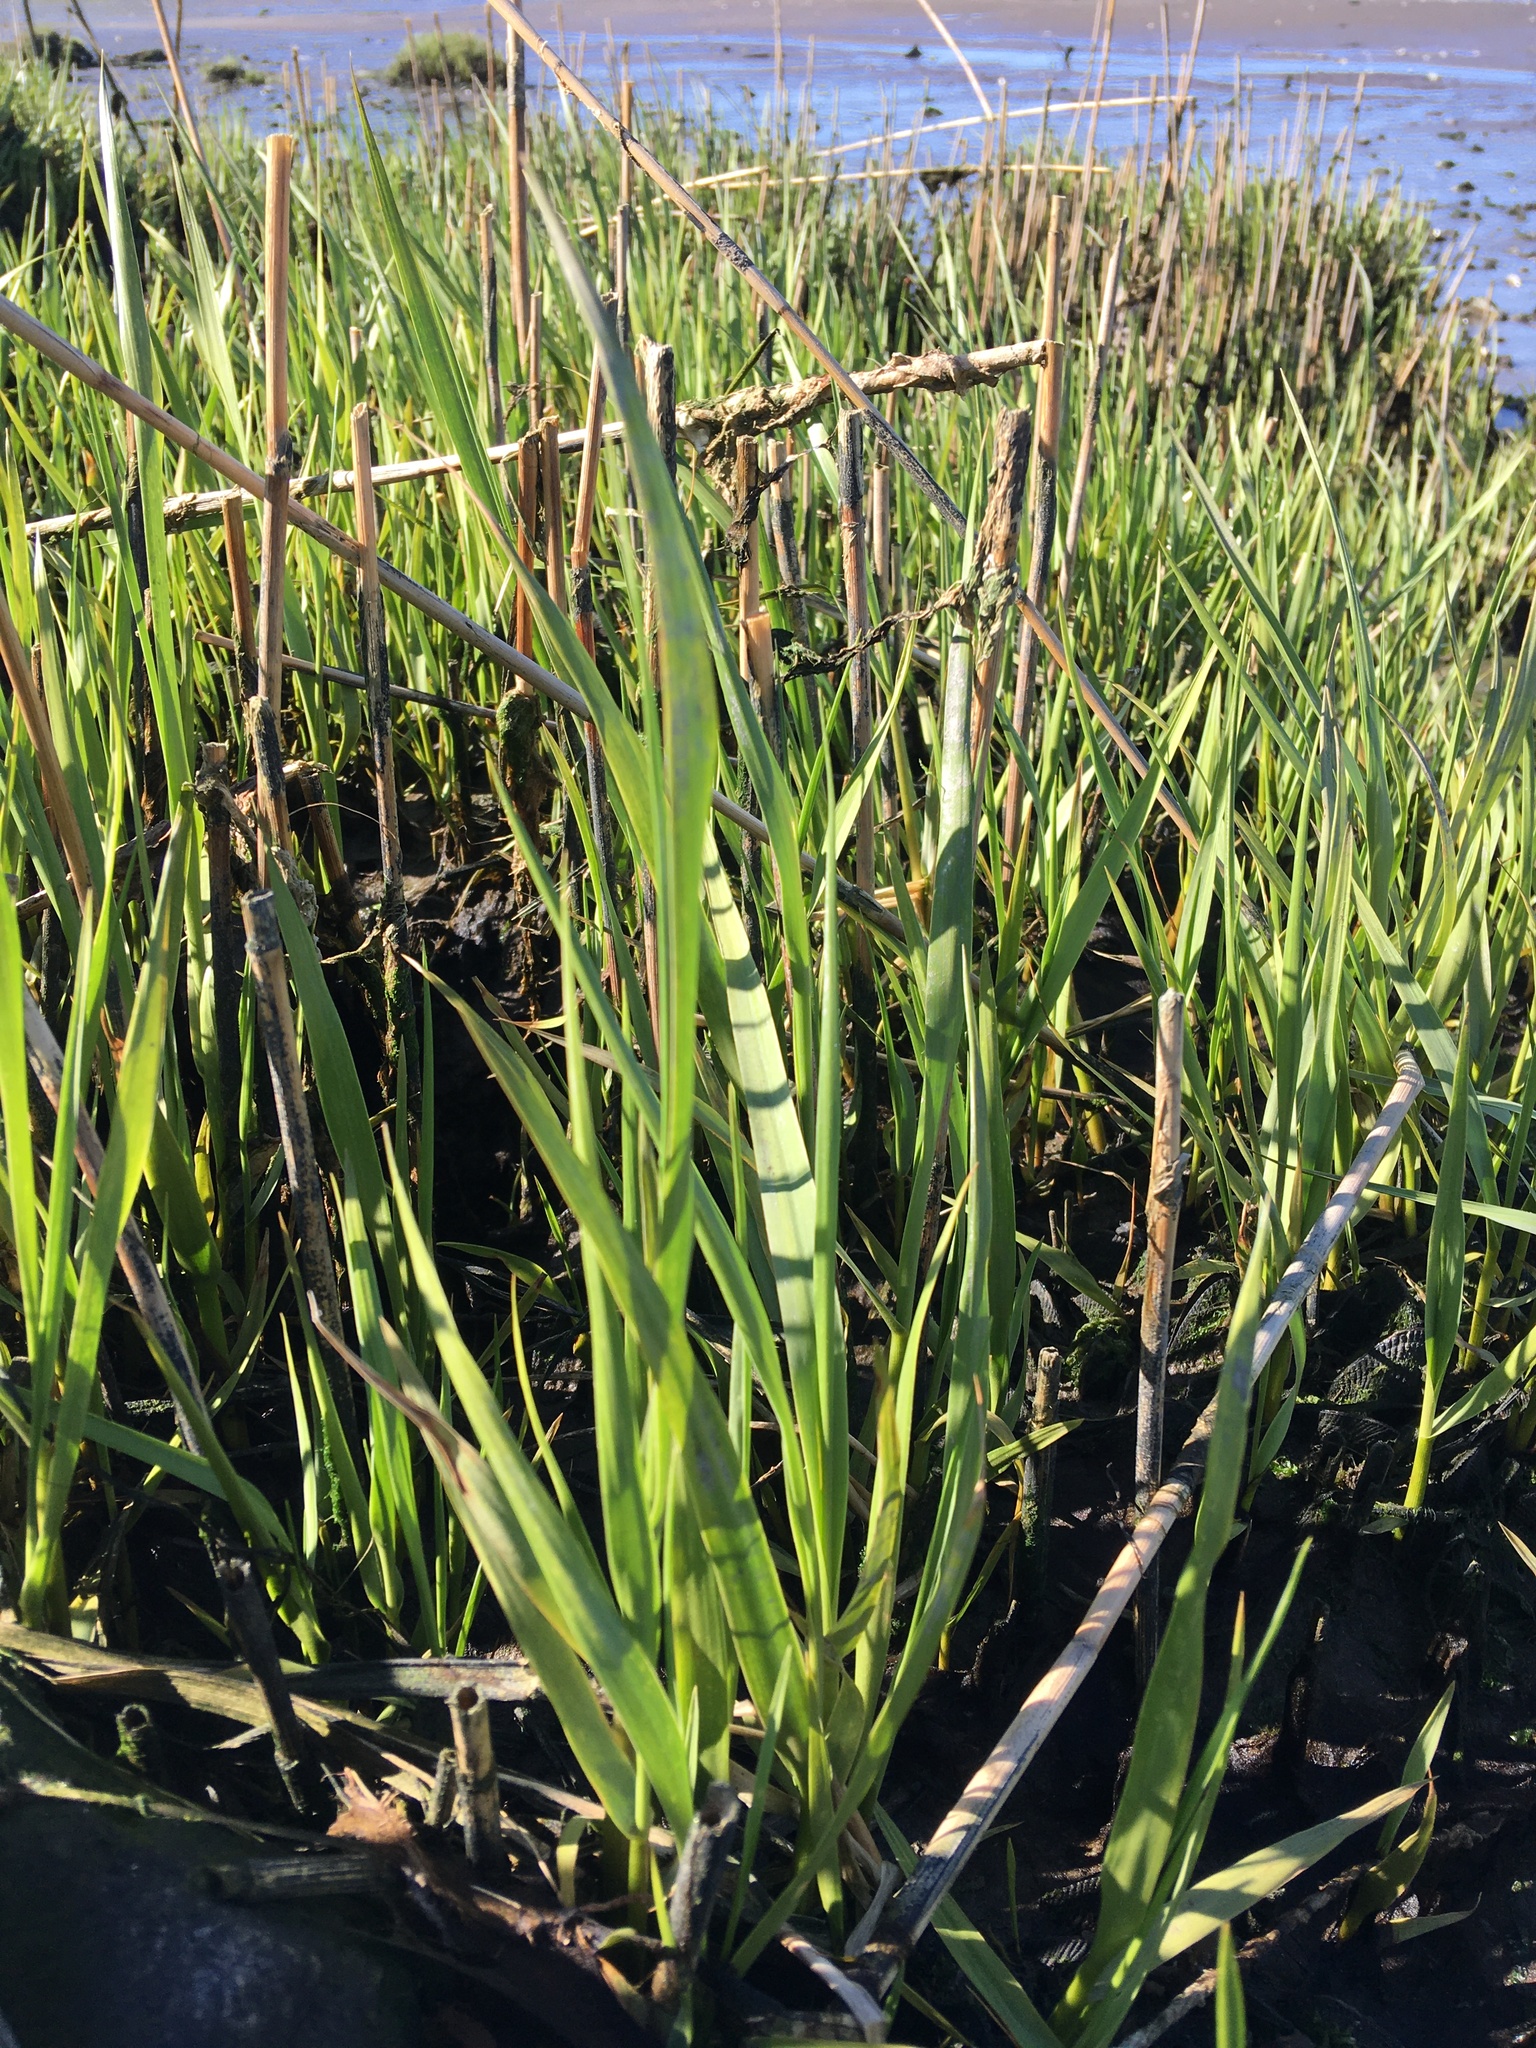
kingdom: Plantae
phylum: Tracheophyta
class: Liliopsida
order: Poales
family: Poaceae
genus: Sporobolus
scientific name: Sporobolus alterniflorus
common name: Atlantic cordgrass
